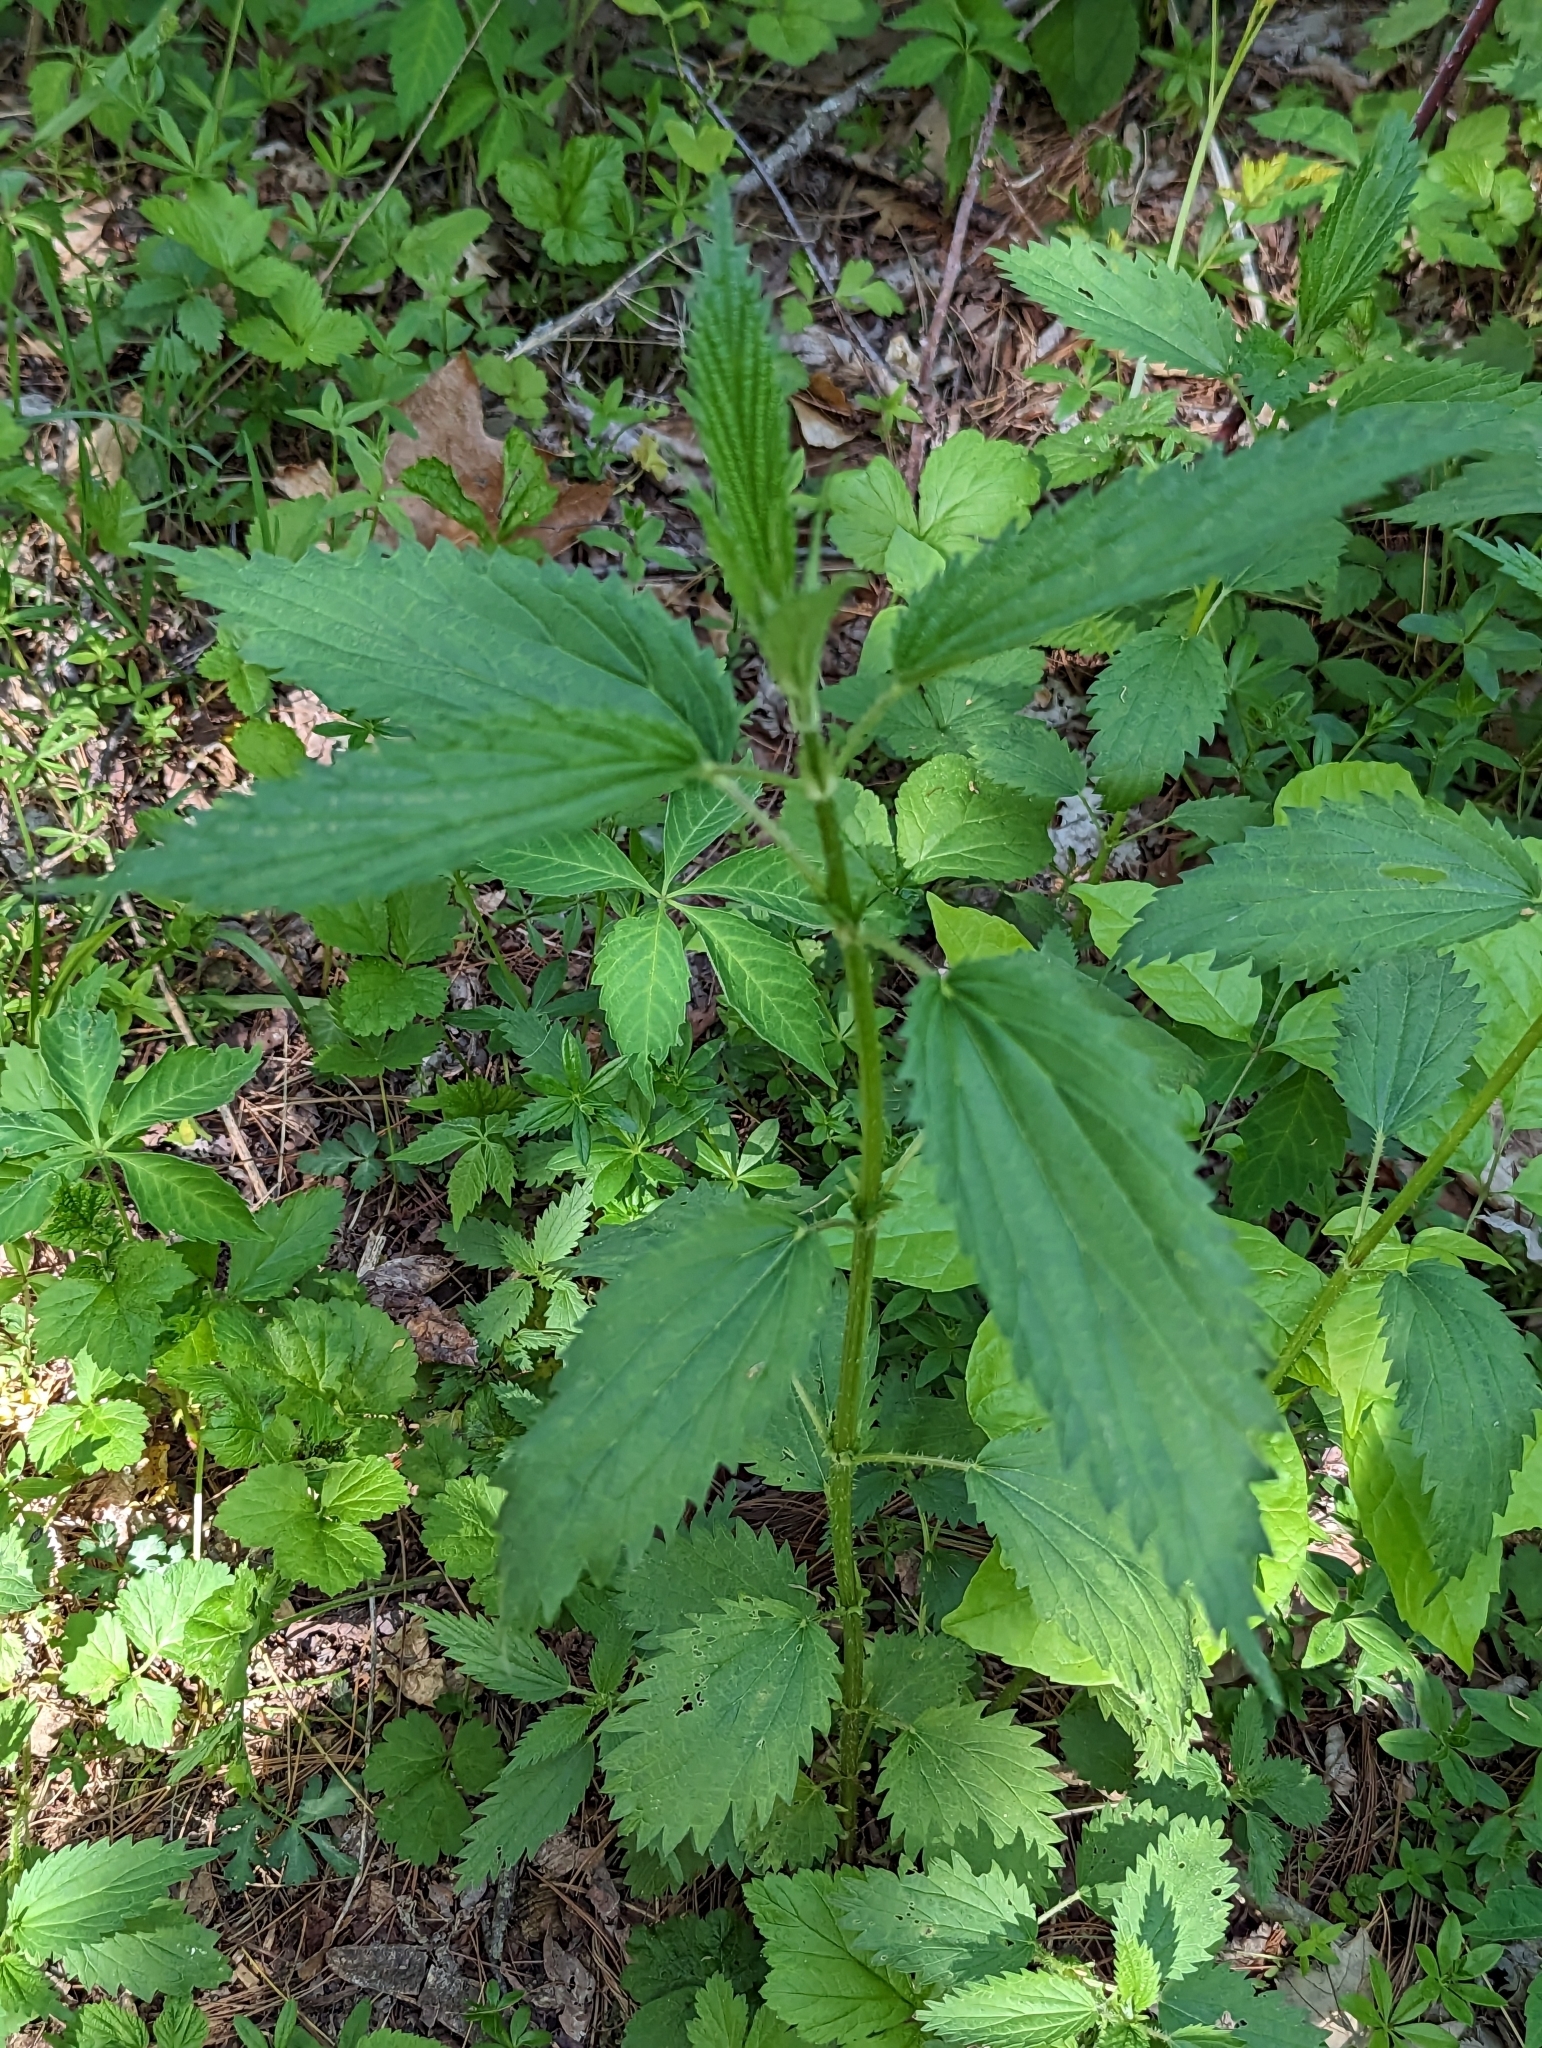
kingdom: Plantae
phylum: Tracheophyta
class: Magnoliopsida
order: Rosales
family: Urticaceae
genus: Urtica
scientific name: Urtica dioica
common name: Common nettle
